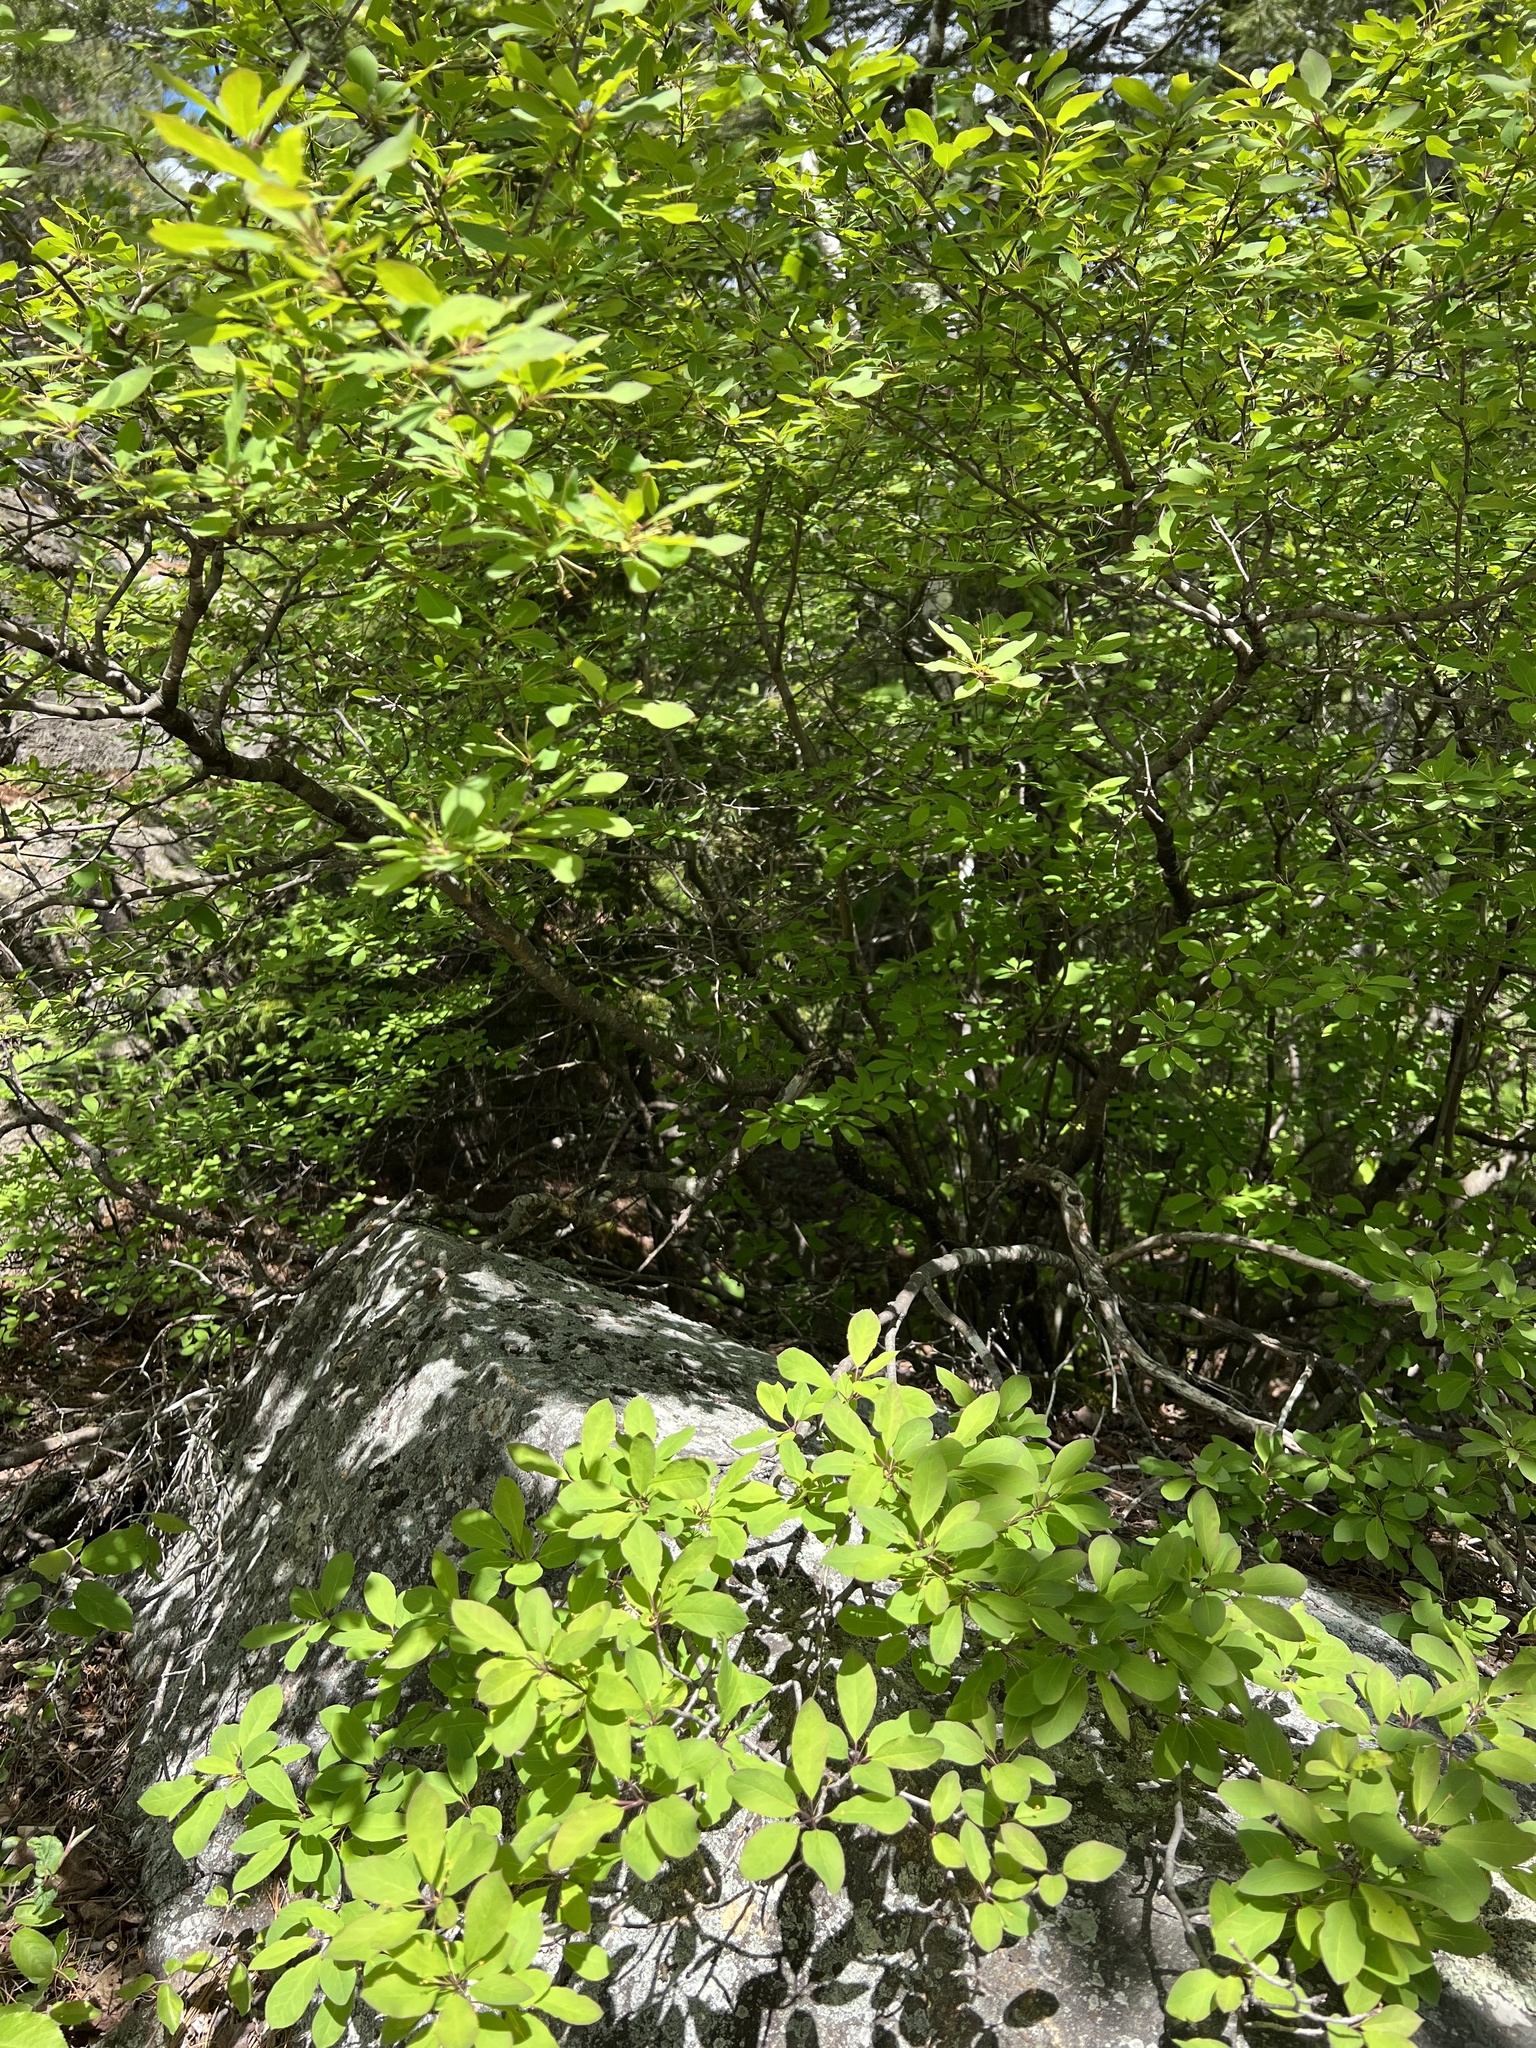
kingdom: Plantae
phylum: Tracheophyta
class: Magnoliopsida
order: Aquifoliales
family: Aquifoliaceae
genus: Ilex
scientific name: Ilex mucronata
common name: Catberry
